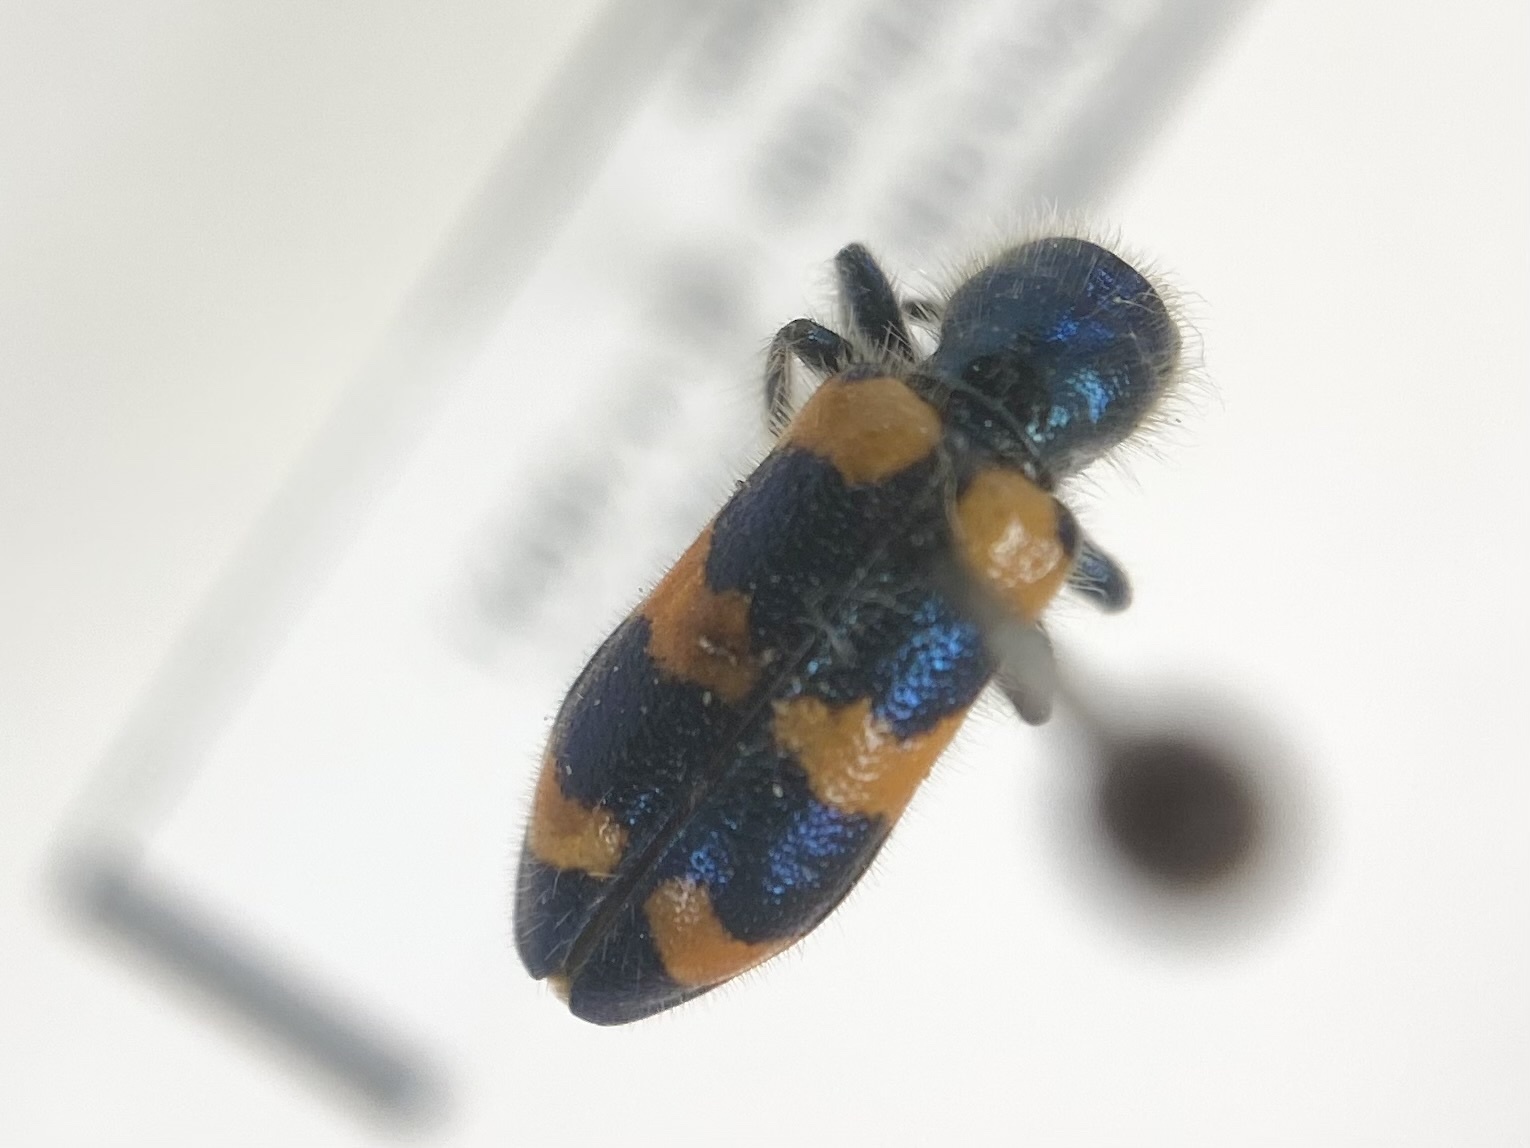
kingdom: Animalia
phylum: Arthropoda
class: Insecta
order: Coleoptera
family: Cleridae
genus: Trichodes
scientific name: Trichodes nutalli
